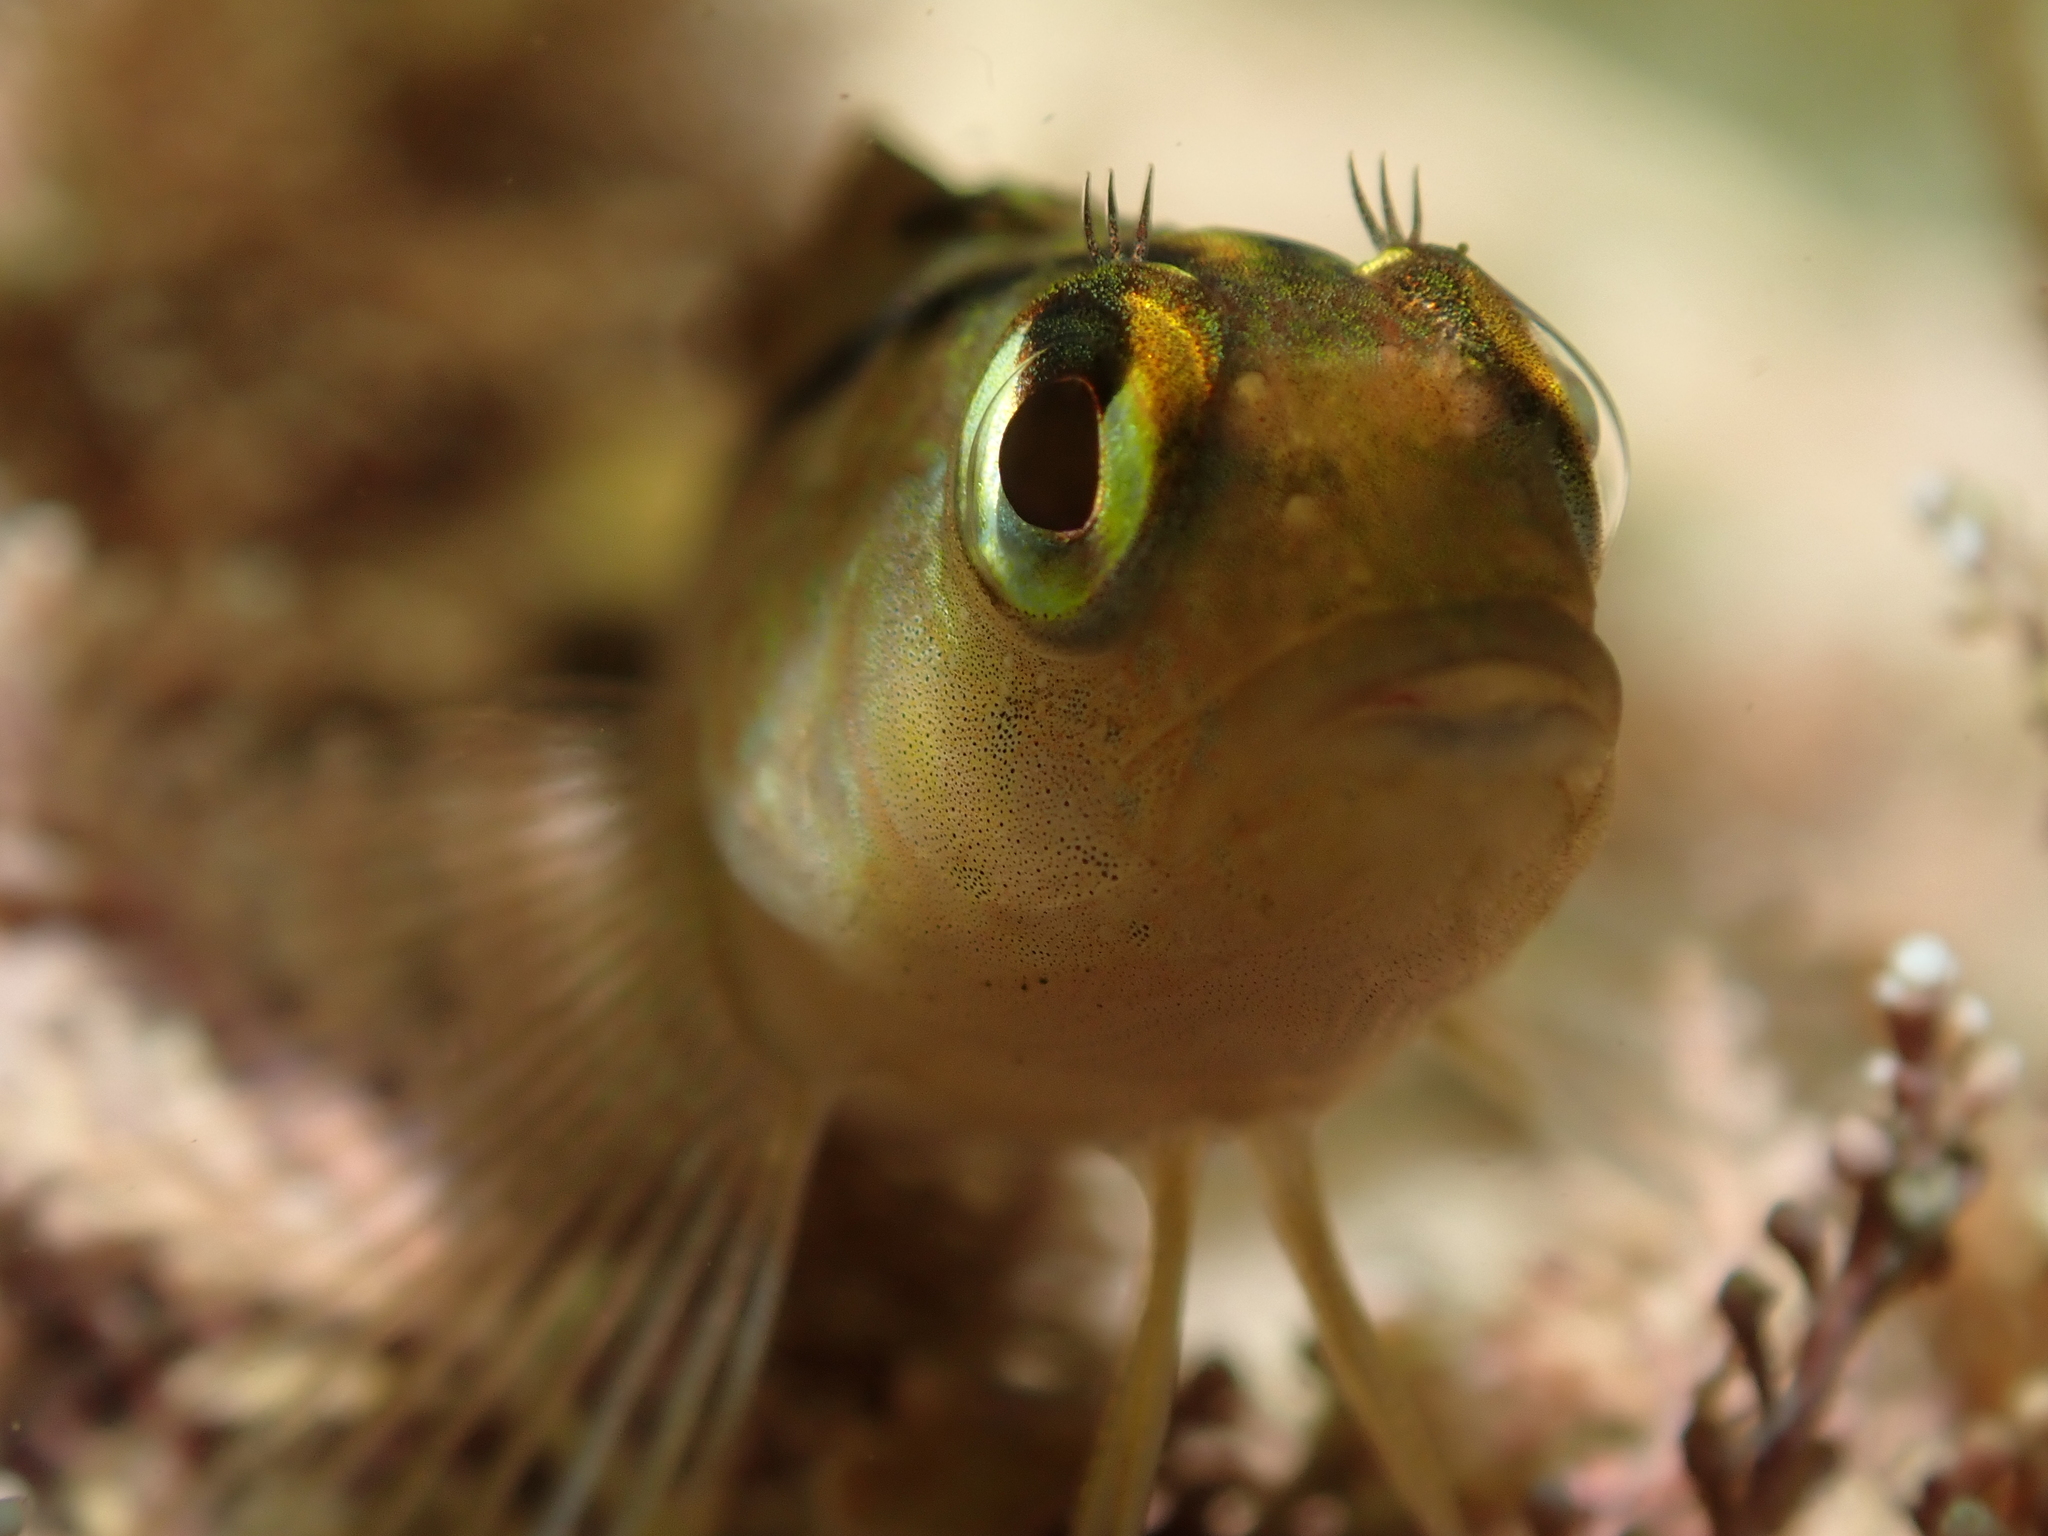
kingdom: Animalia
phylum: Chordata
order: Perciformes
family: Tripterygiidae
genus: Forsterygion
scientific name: Forsterygion lapillum
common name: Common triplefin
